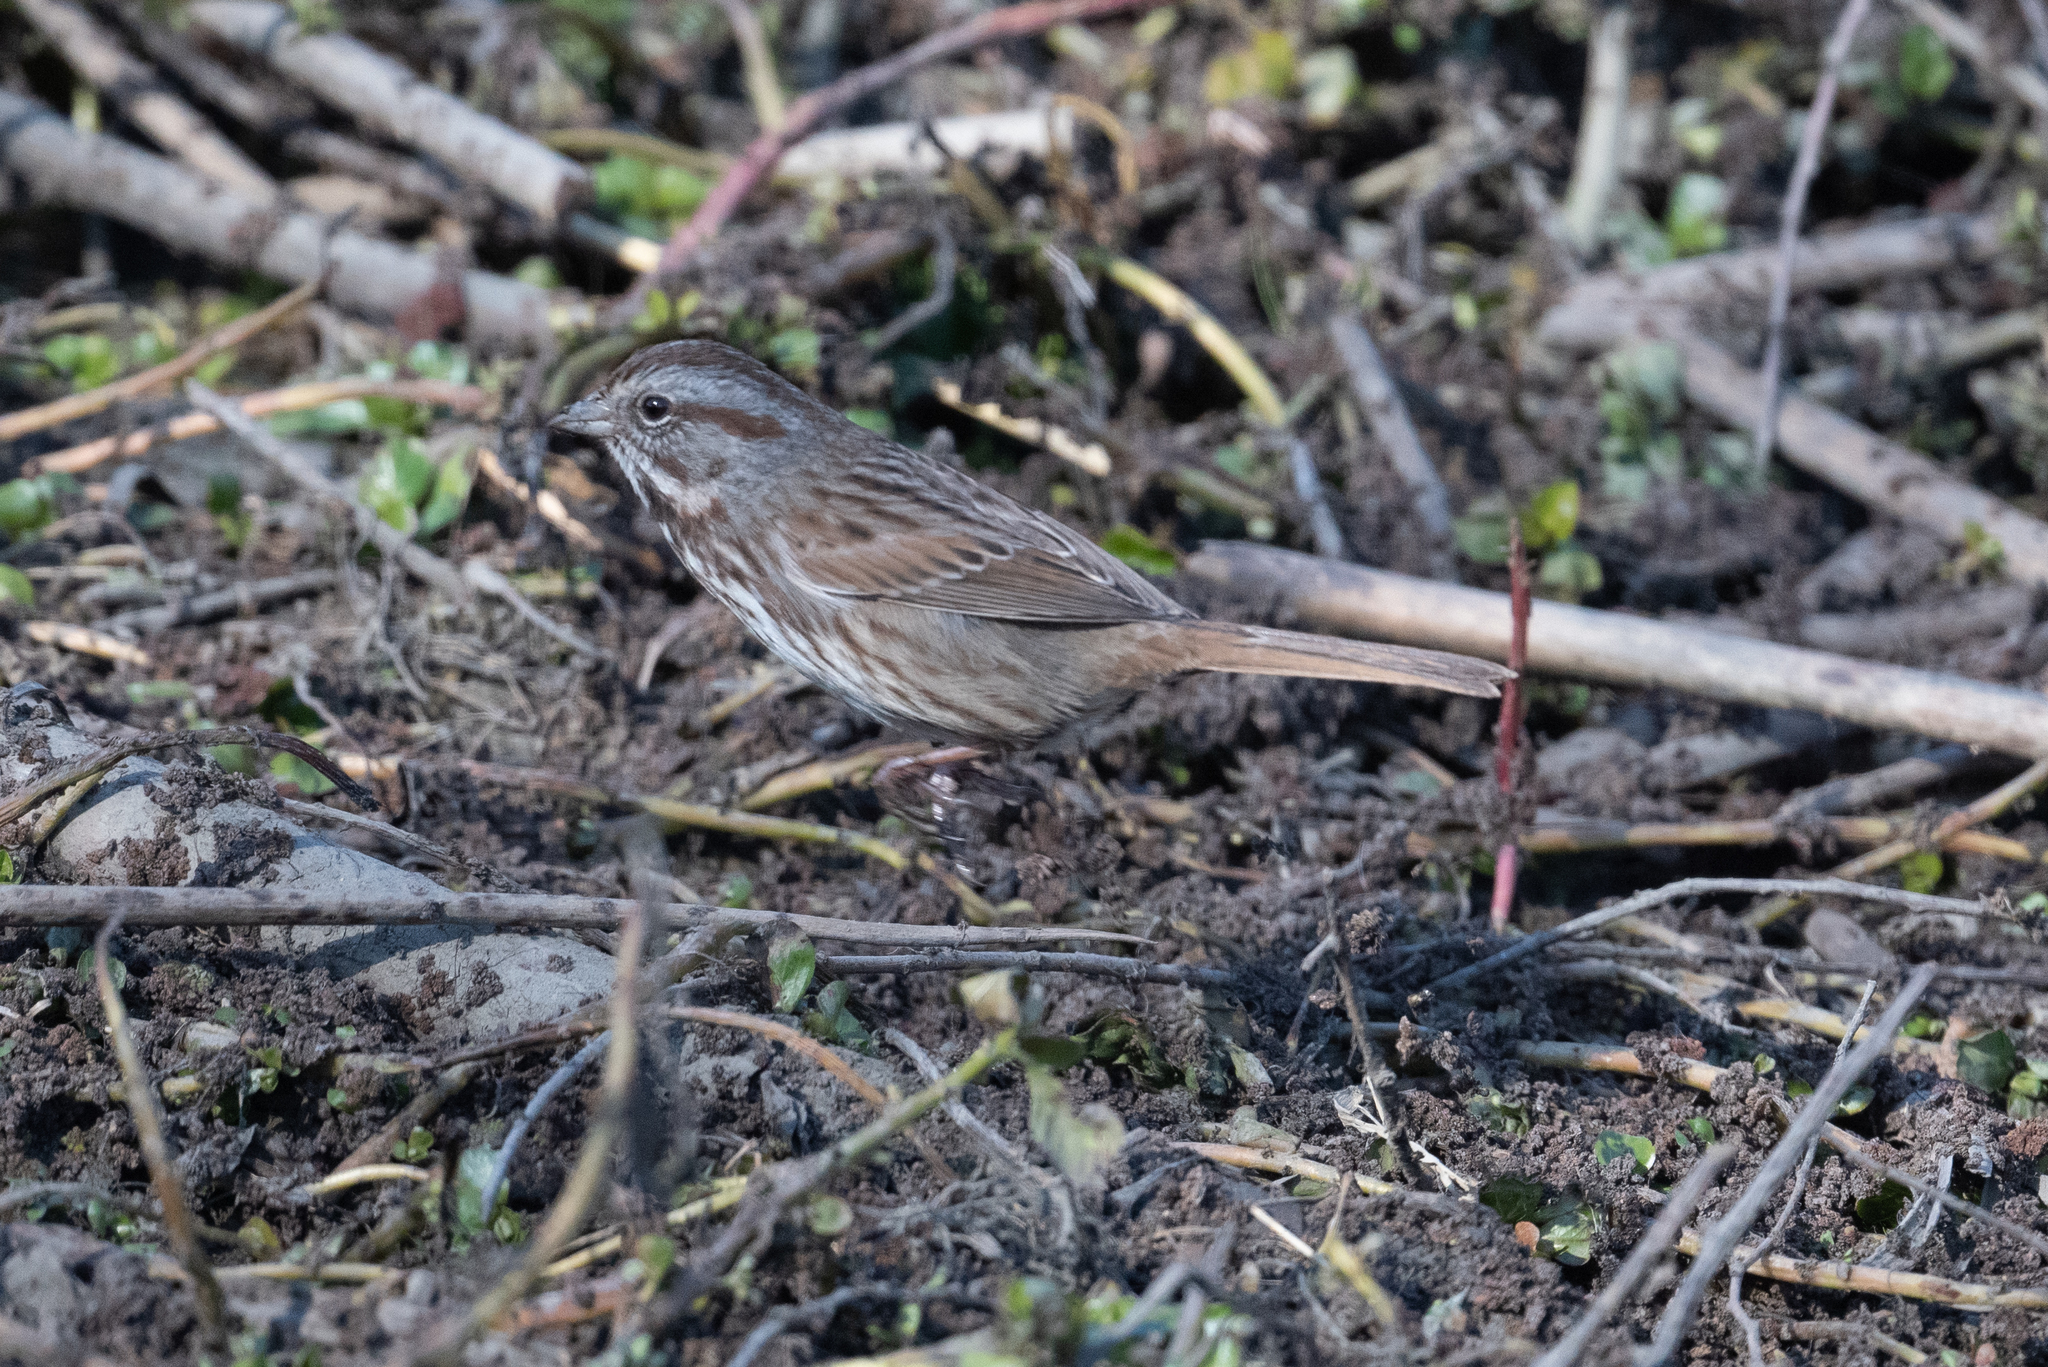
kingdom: Animalia
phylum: Chordata
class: Aves
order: Passeriformes
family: Passerellidae
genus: Melospiza
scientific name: Melospiza melodia
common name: Song sparrow
